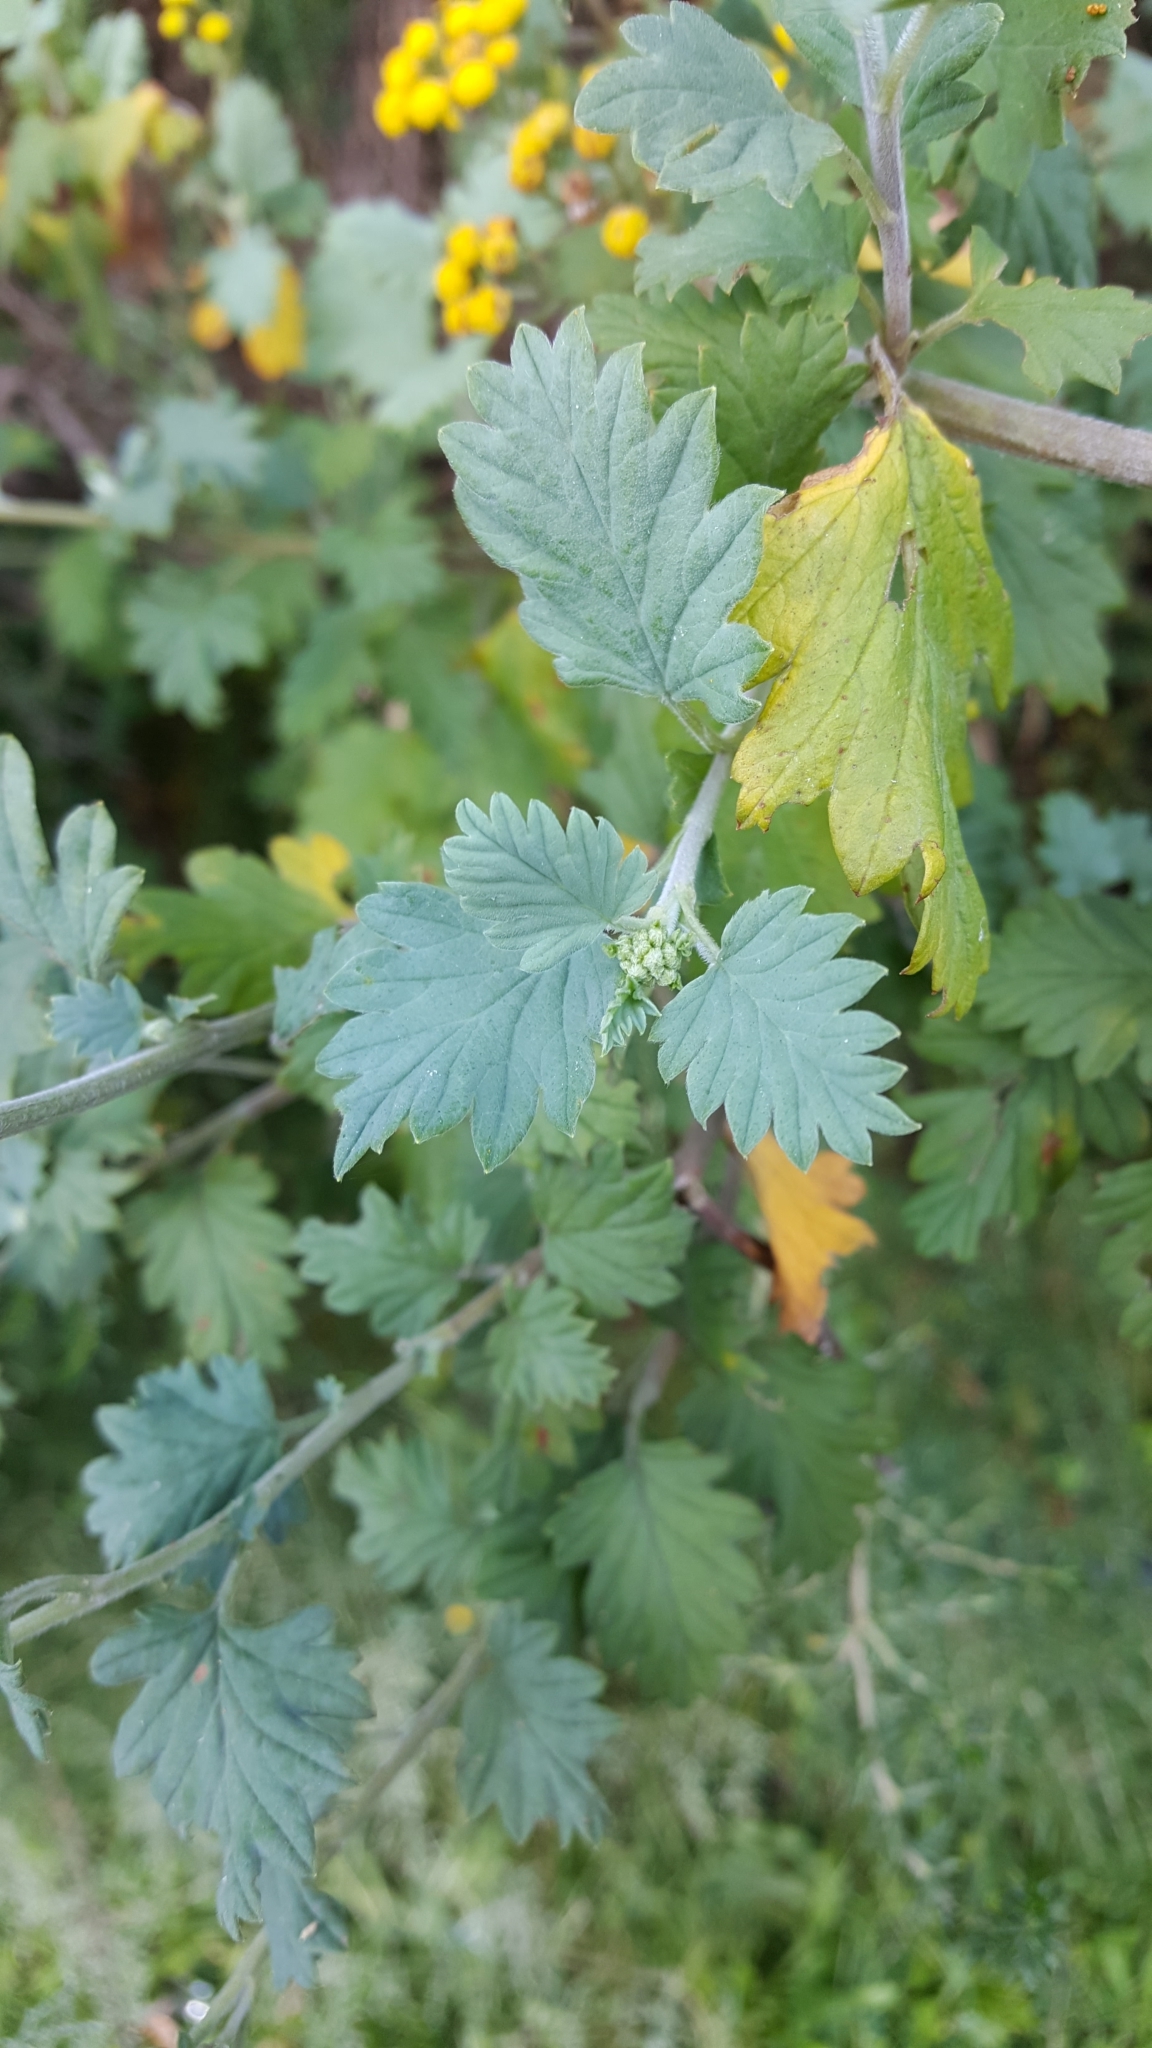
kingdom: Plantae
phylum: Tracheophyta
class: Magnoliopsida
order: Asterales
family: Asteraceae
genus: Schistostephium
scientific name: Schistostephium rotundifolium
